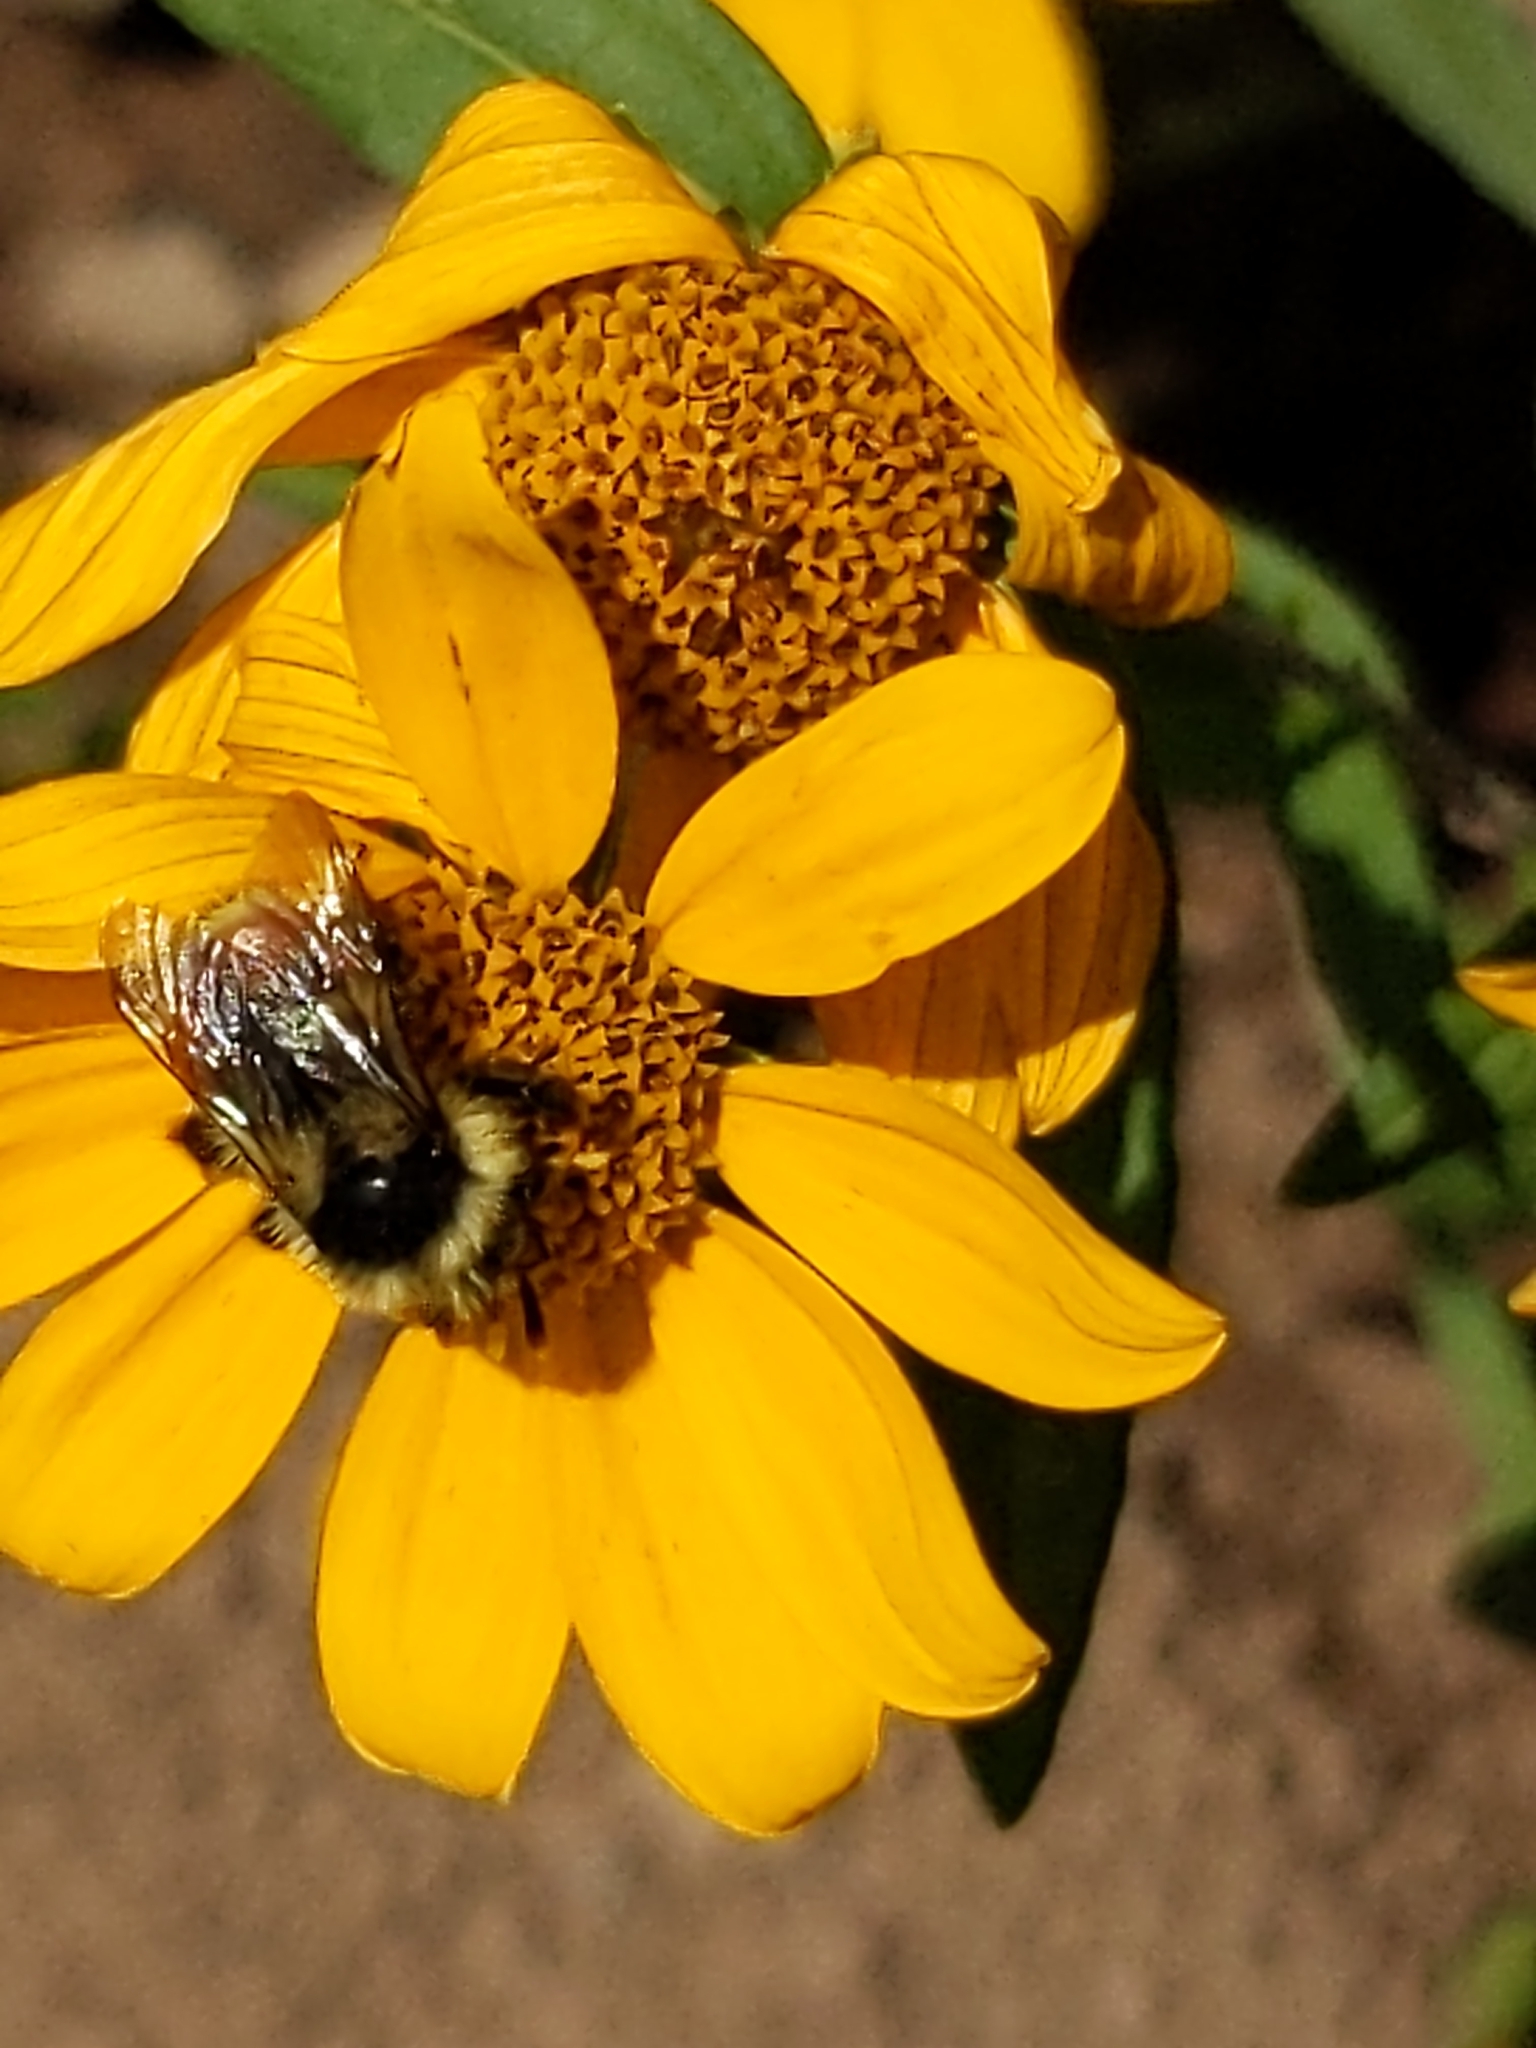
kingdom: Animalia
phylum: Arthropoda
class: Insecta
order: Hymenoptera
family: Apidae
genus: Bombus
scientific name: Bombus bifarius
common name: Two form bumble bee
